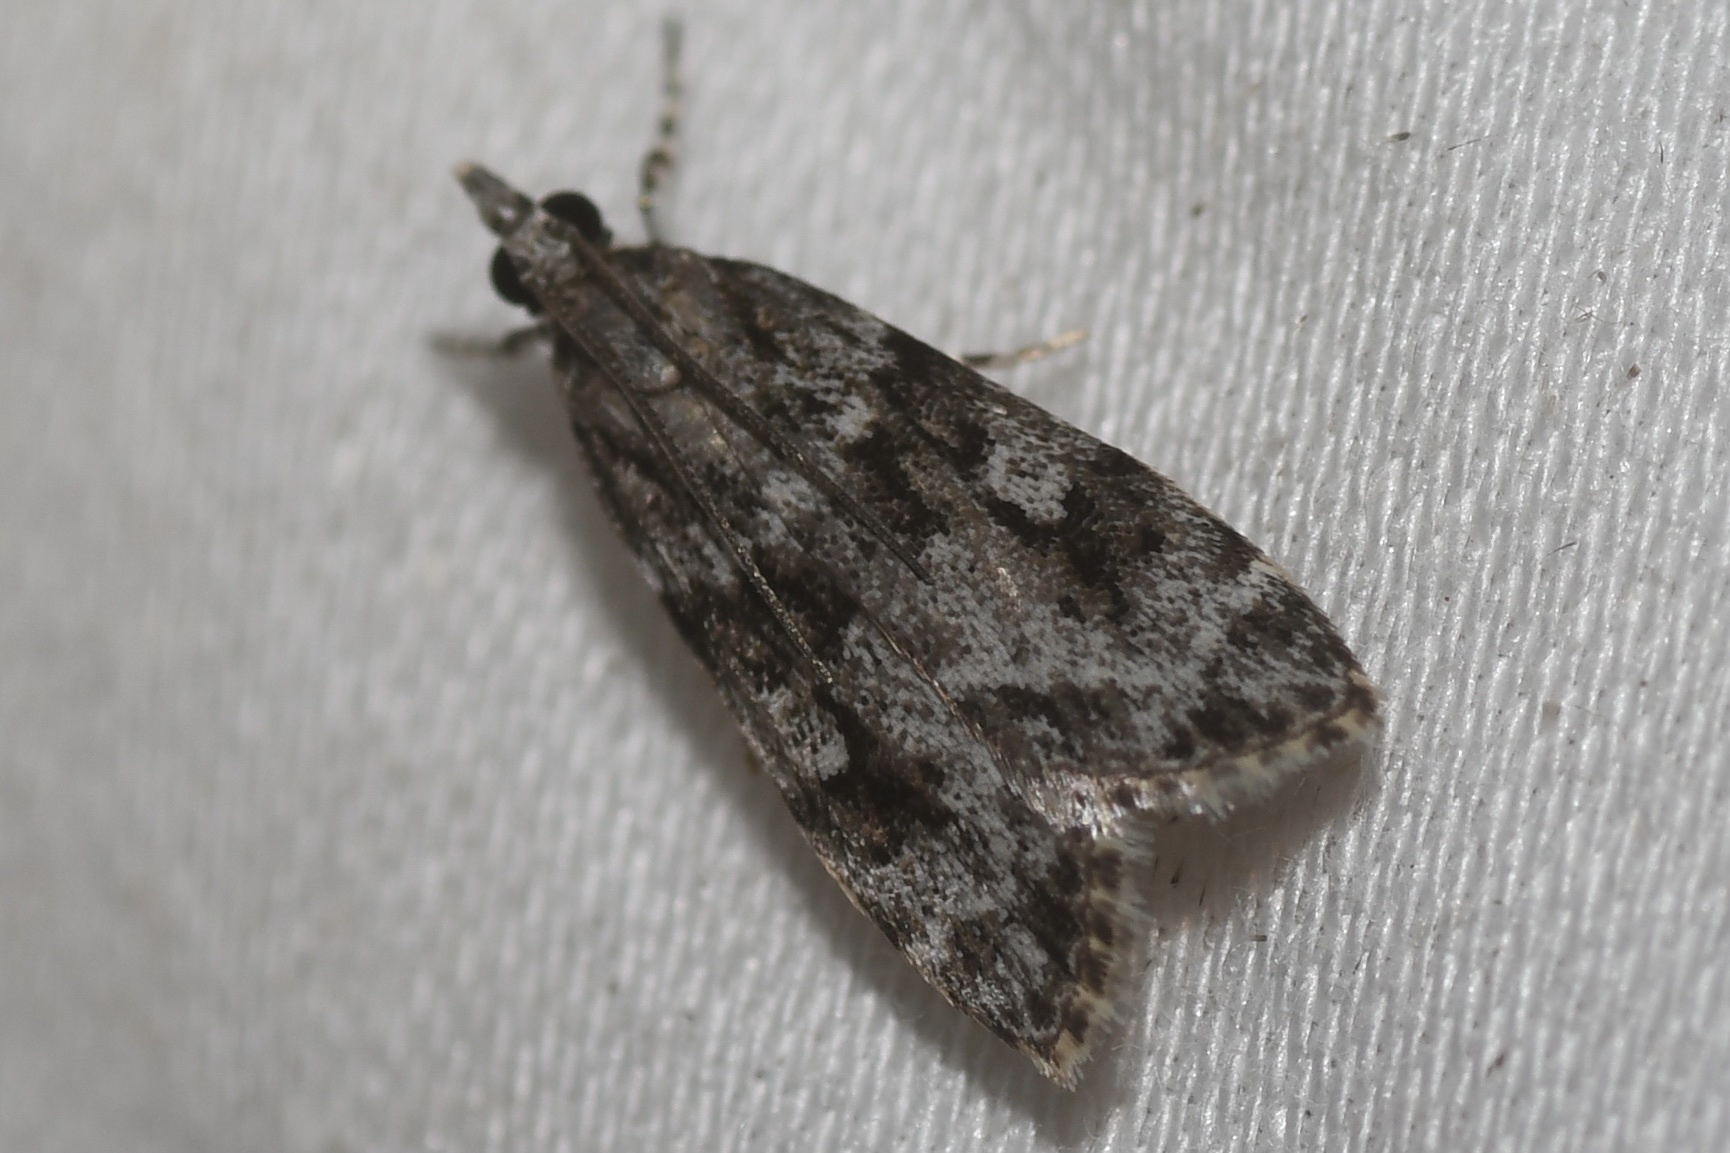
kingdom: Animalia
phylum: Arthropoda
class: Insecta
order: Lepidoptera
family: Crambidae
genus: Scoparia
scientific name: Scoparia biplagialis
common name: Double-striped scoparia moth
